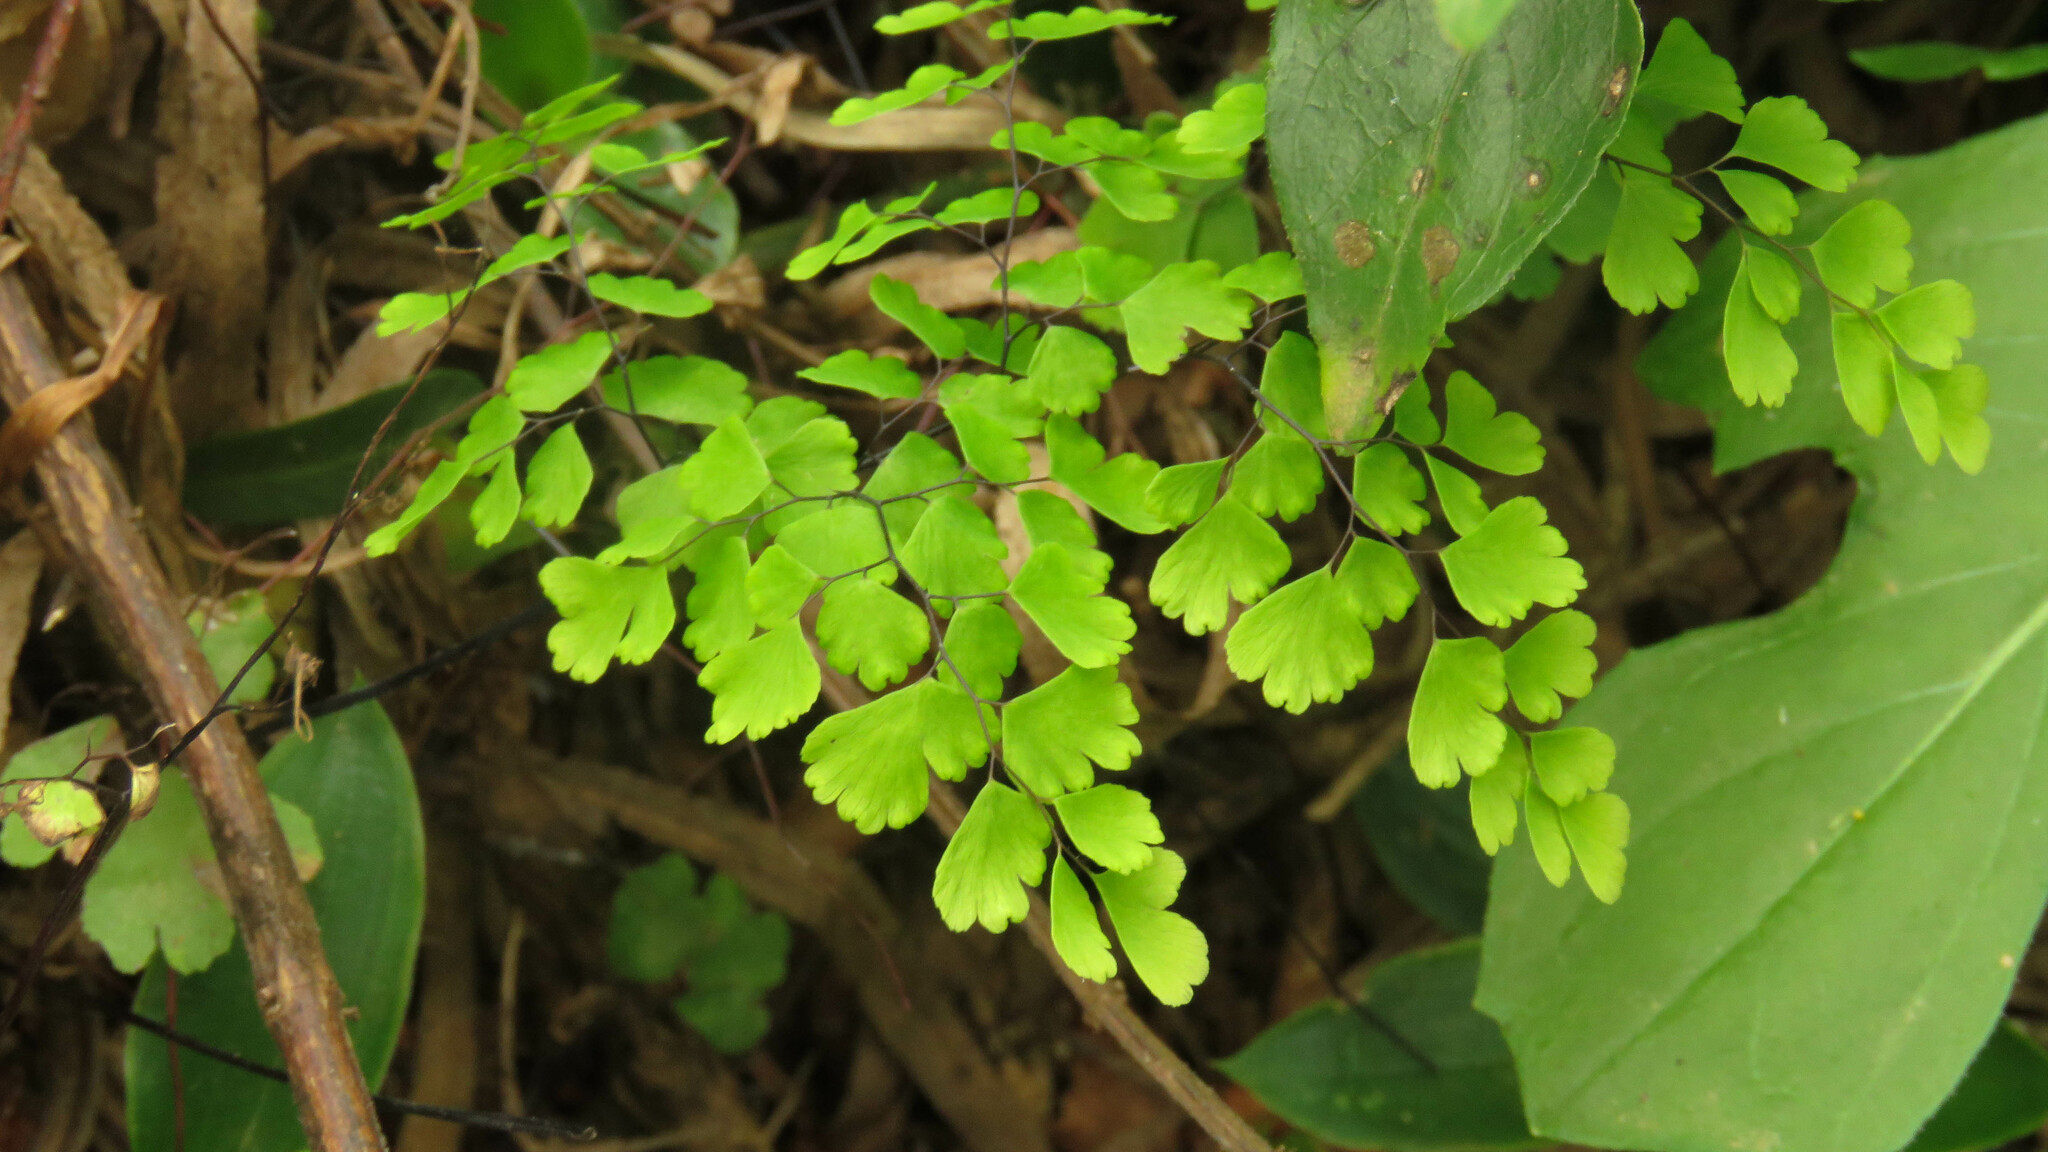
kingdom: Plantae
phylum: Tracheophyta
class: Polypodiopsida
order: Polypodiales
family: Pteridaceae
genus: Adiantum
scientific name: Adiantum raddianum
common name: Delta maidenhair fern
